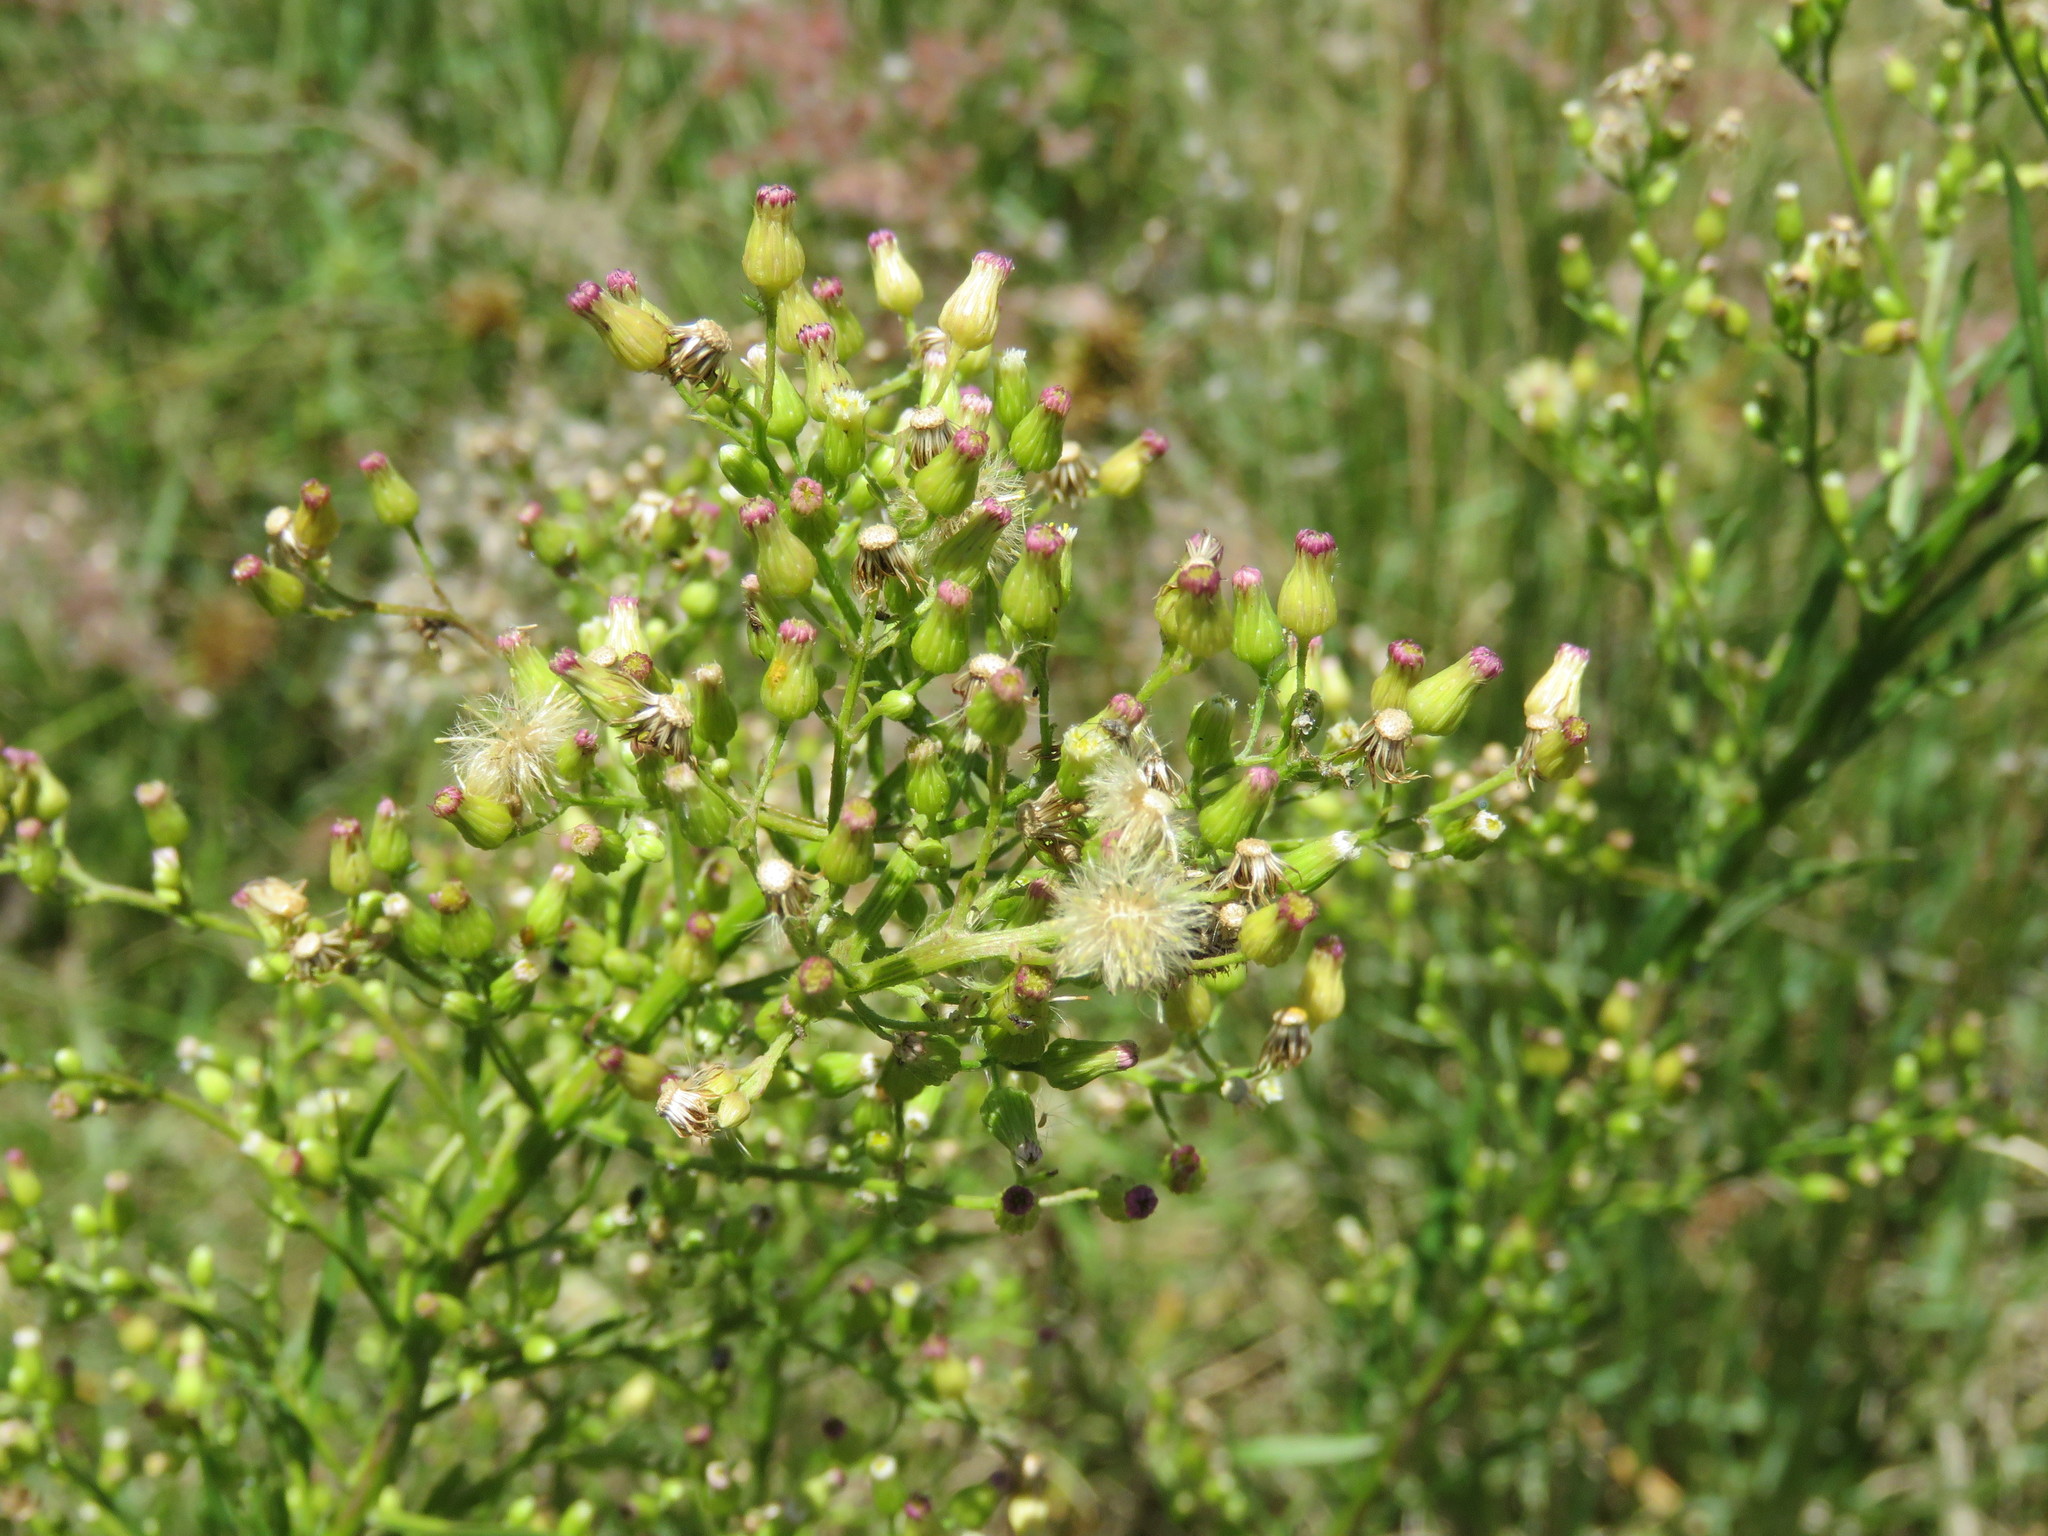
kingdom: Plantae
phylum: Tracheophyta
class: Magnoliopsida
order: Asterales
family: Asteraceae
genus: Erigeron
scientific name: Erigeron canadensis
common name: Canadian fleabane
